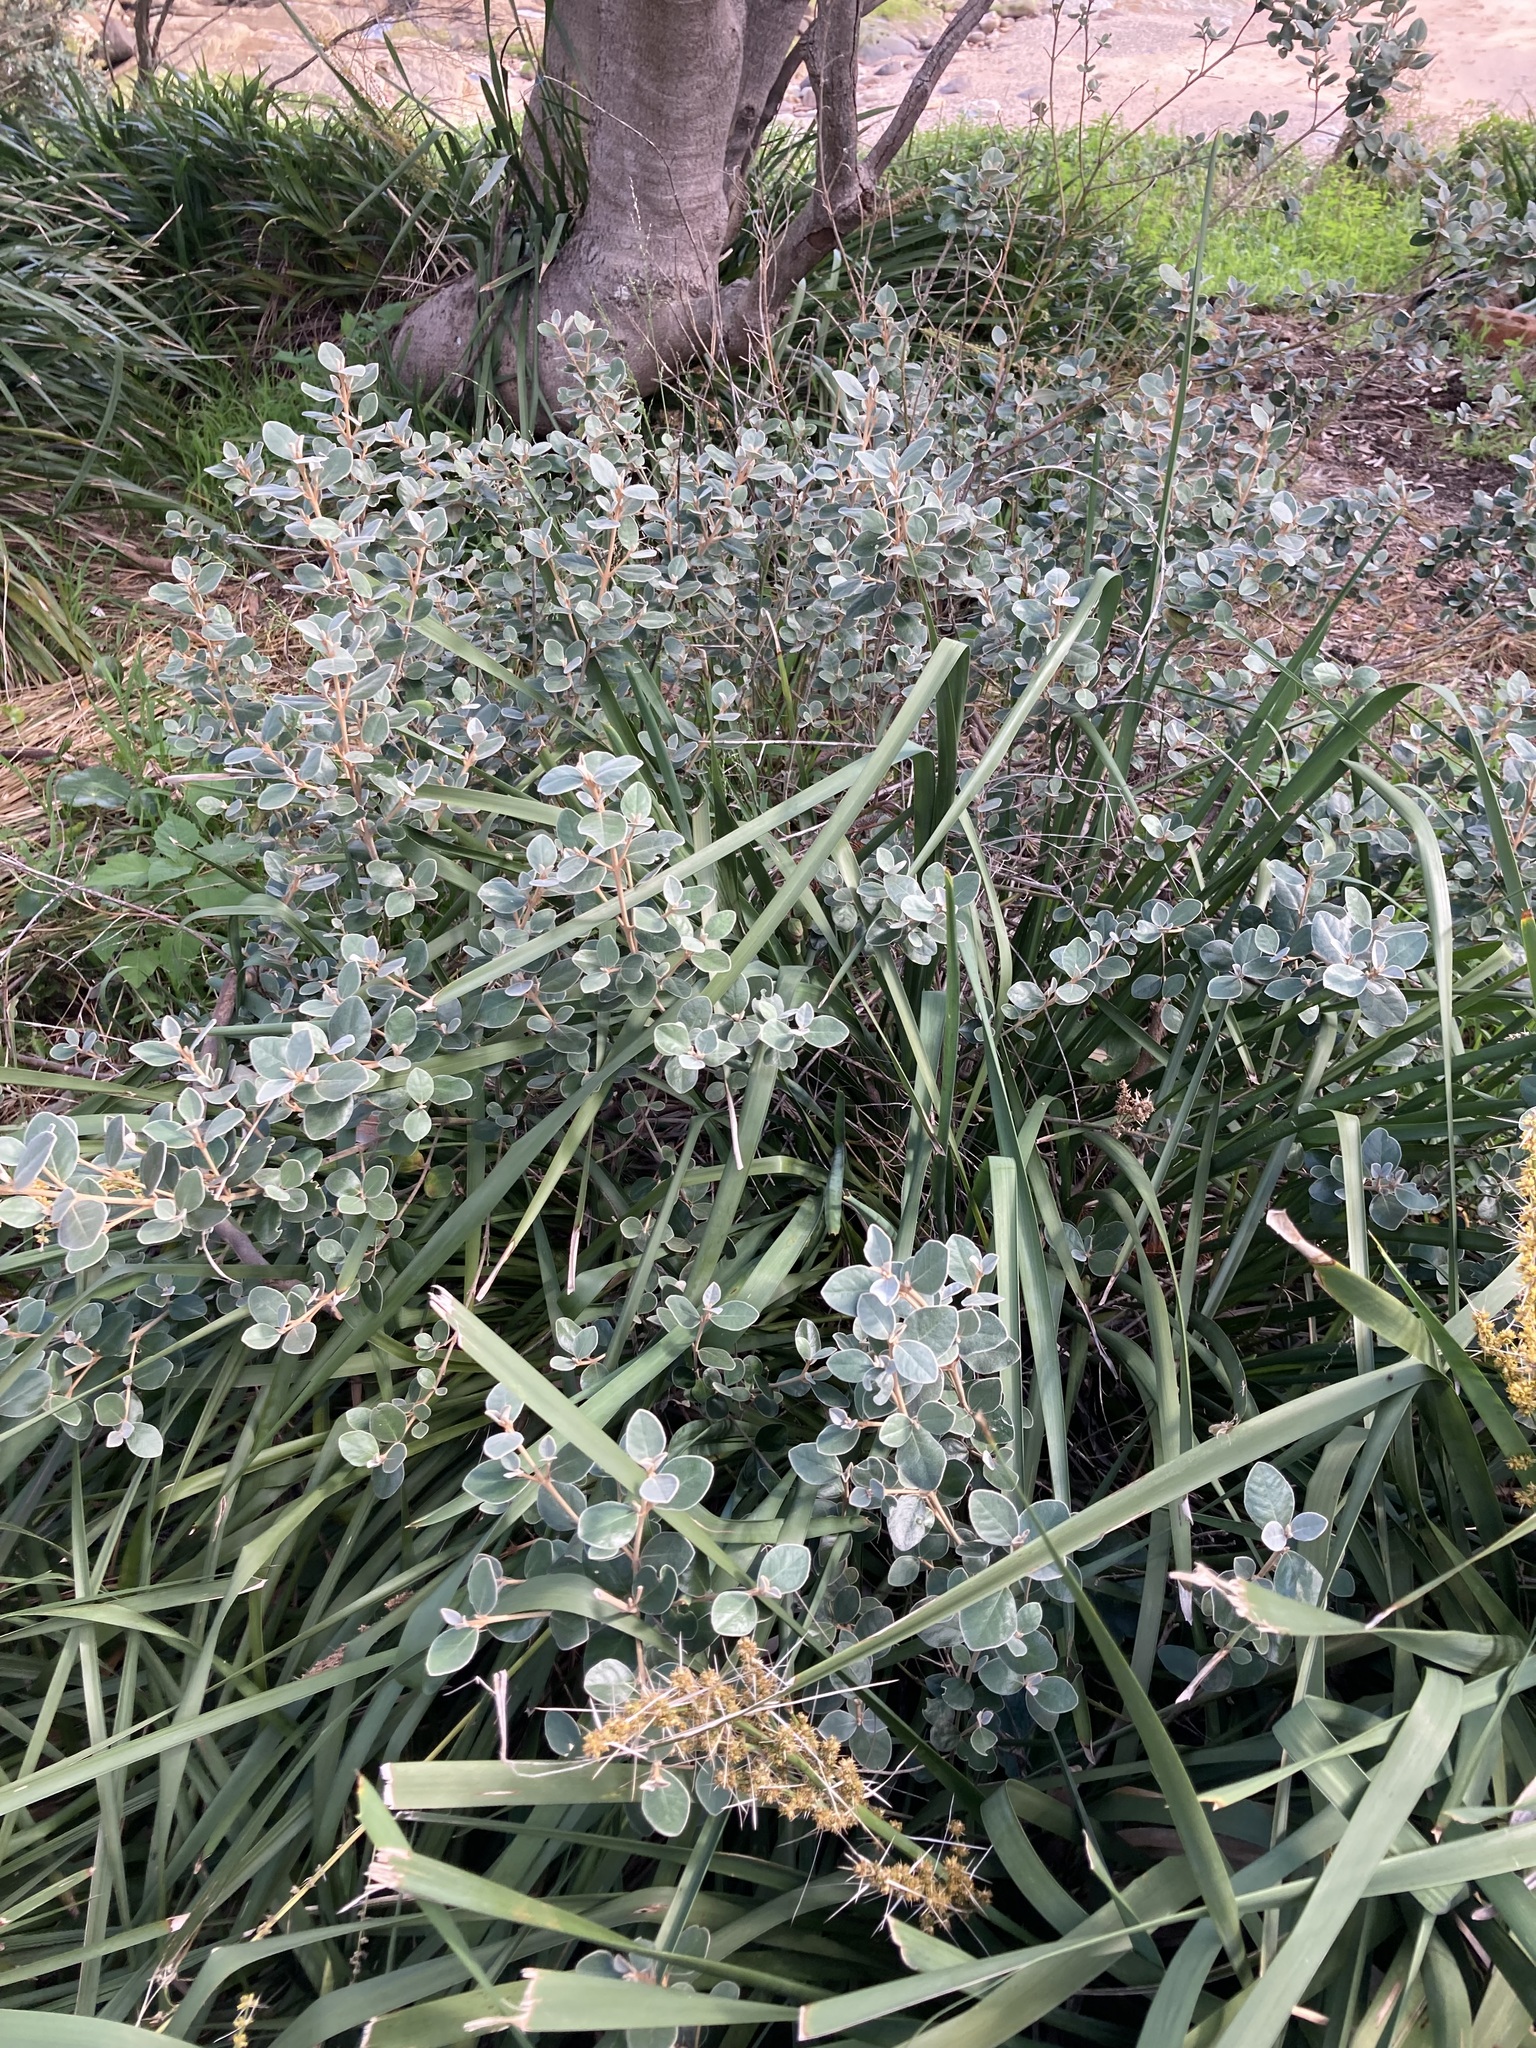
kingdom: Plantae
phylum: Tracheophyta
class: Magnoliopsida
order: Sapindales
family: Rutaceae
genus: Correa
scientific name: Correa alba
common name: White correa
